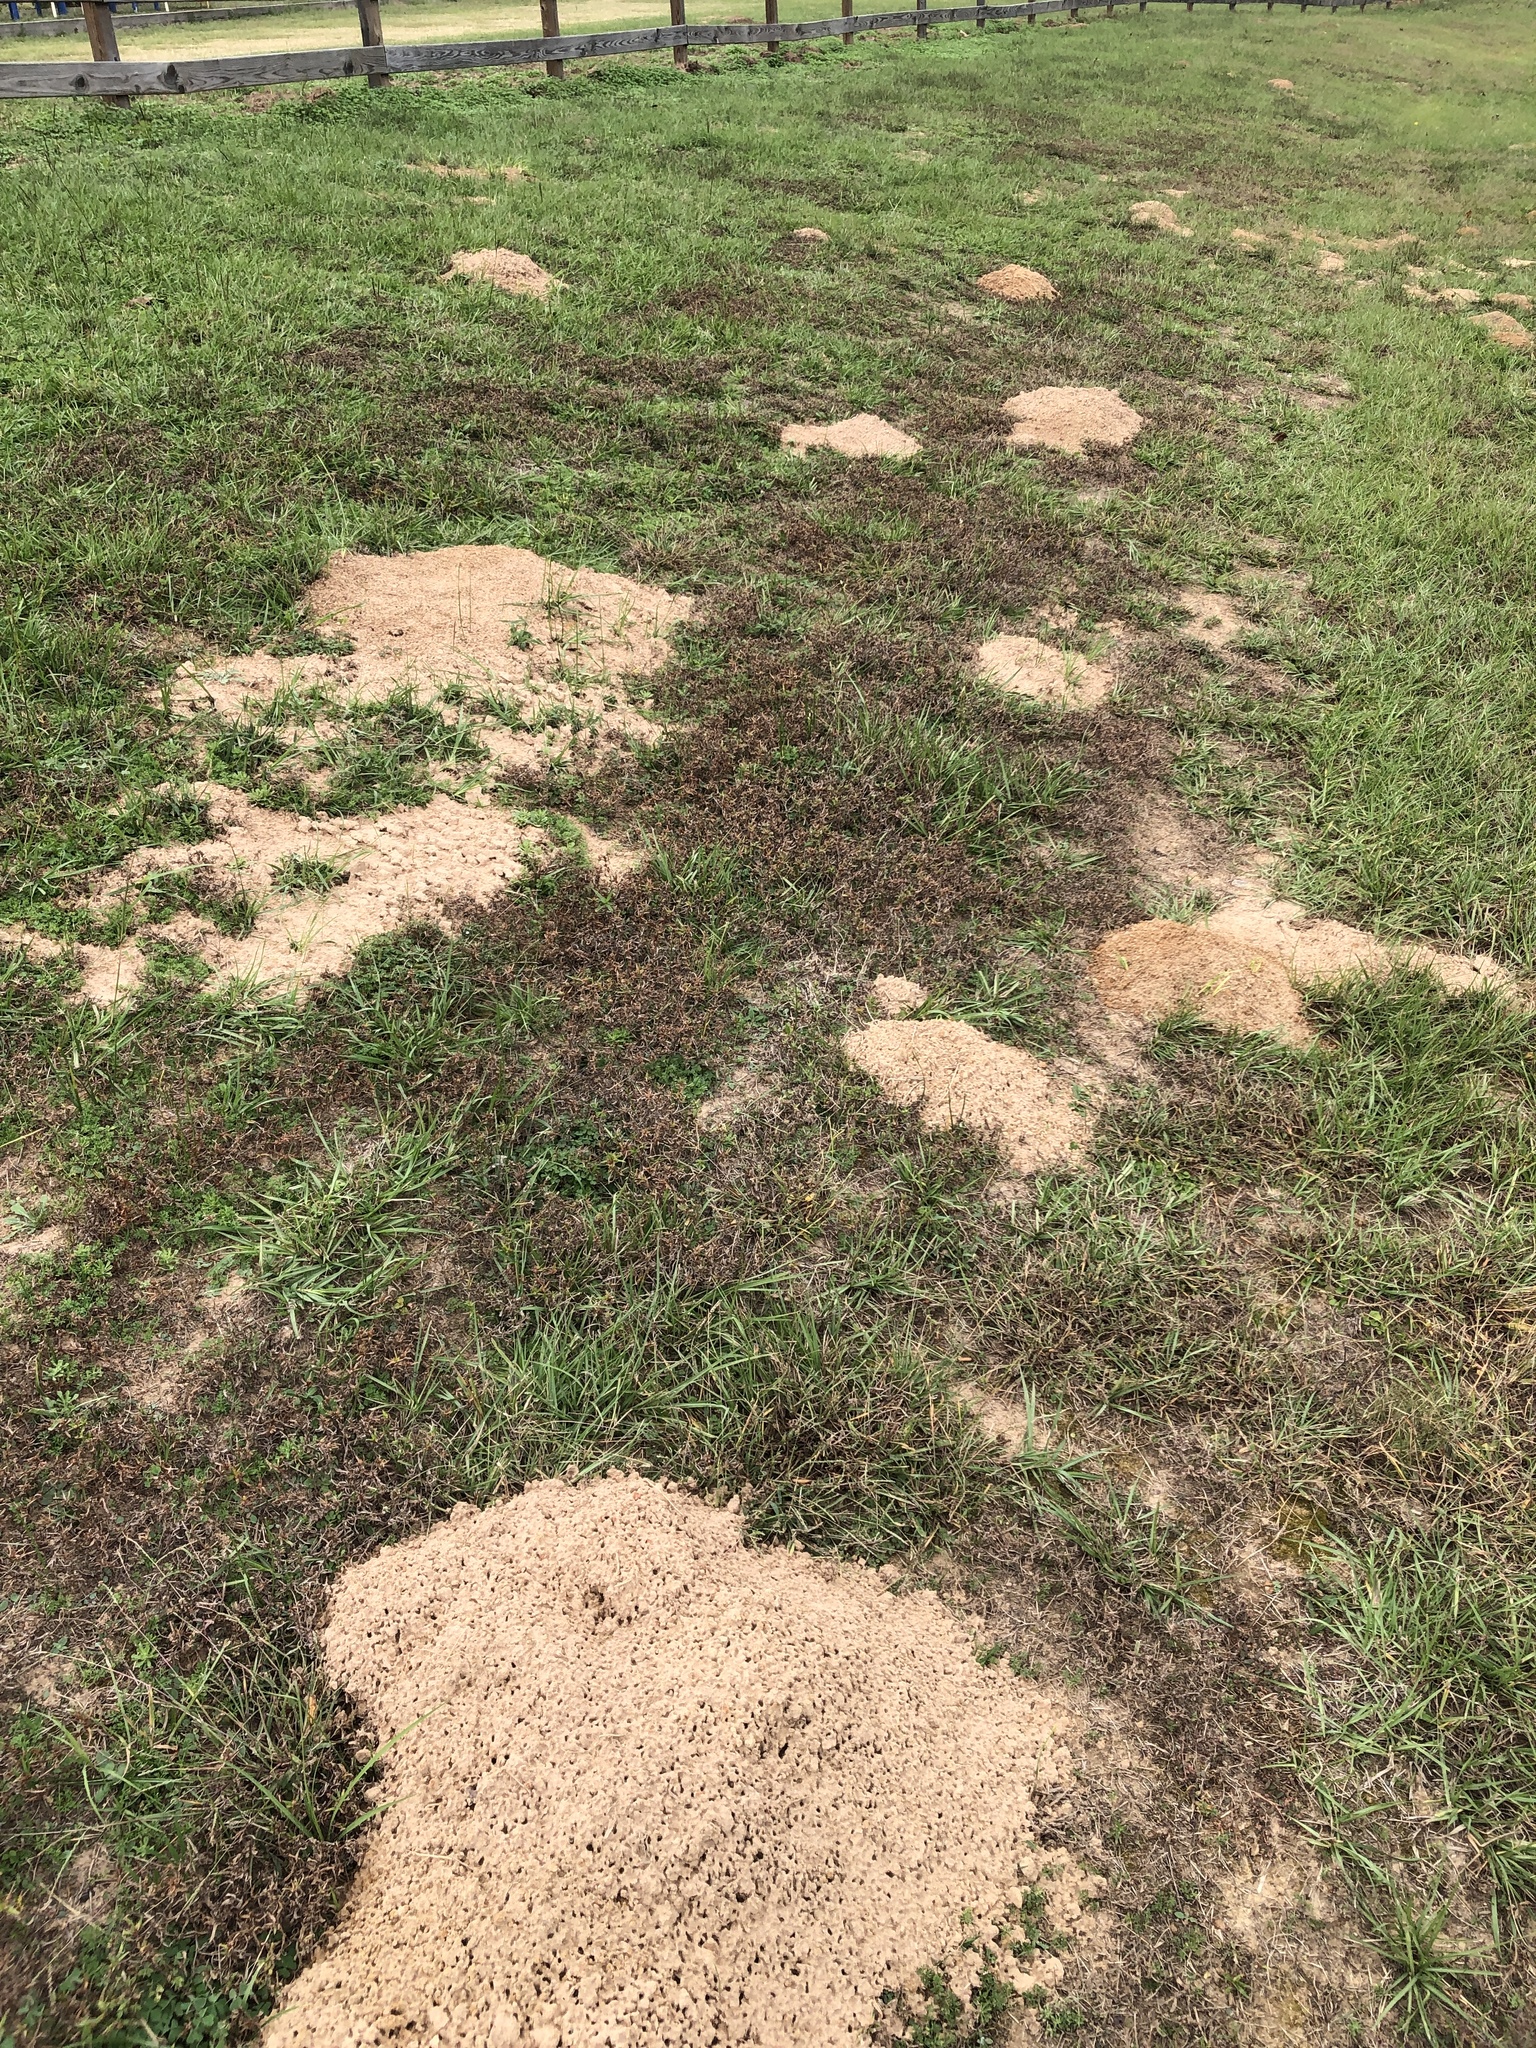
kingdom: Animalia
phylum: Chordata
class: Mammalia
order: Rodentia
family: Geomyidae
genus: Geomys
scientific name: Geomys breviceps
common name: Baird's pocket gopher
